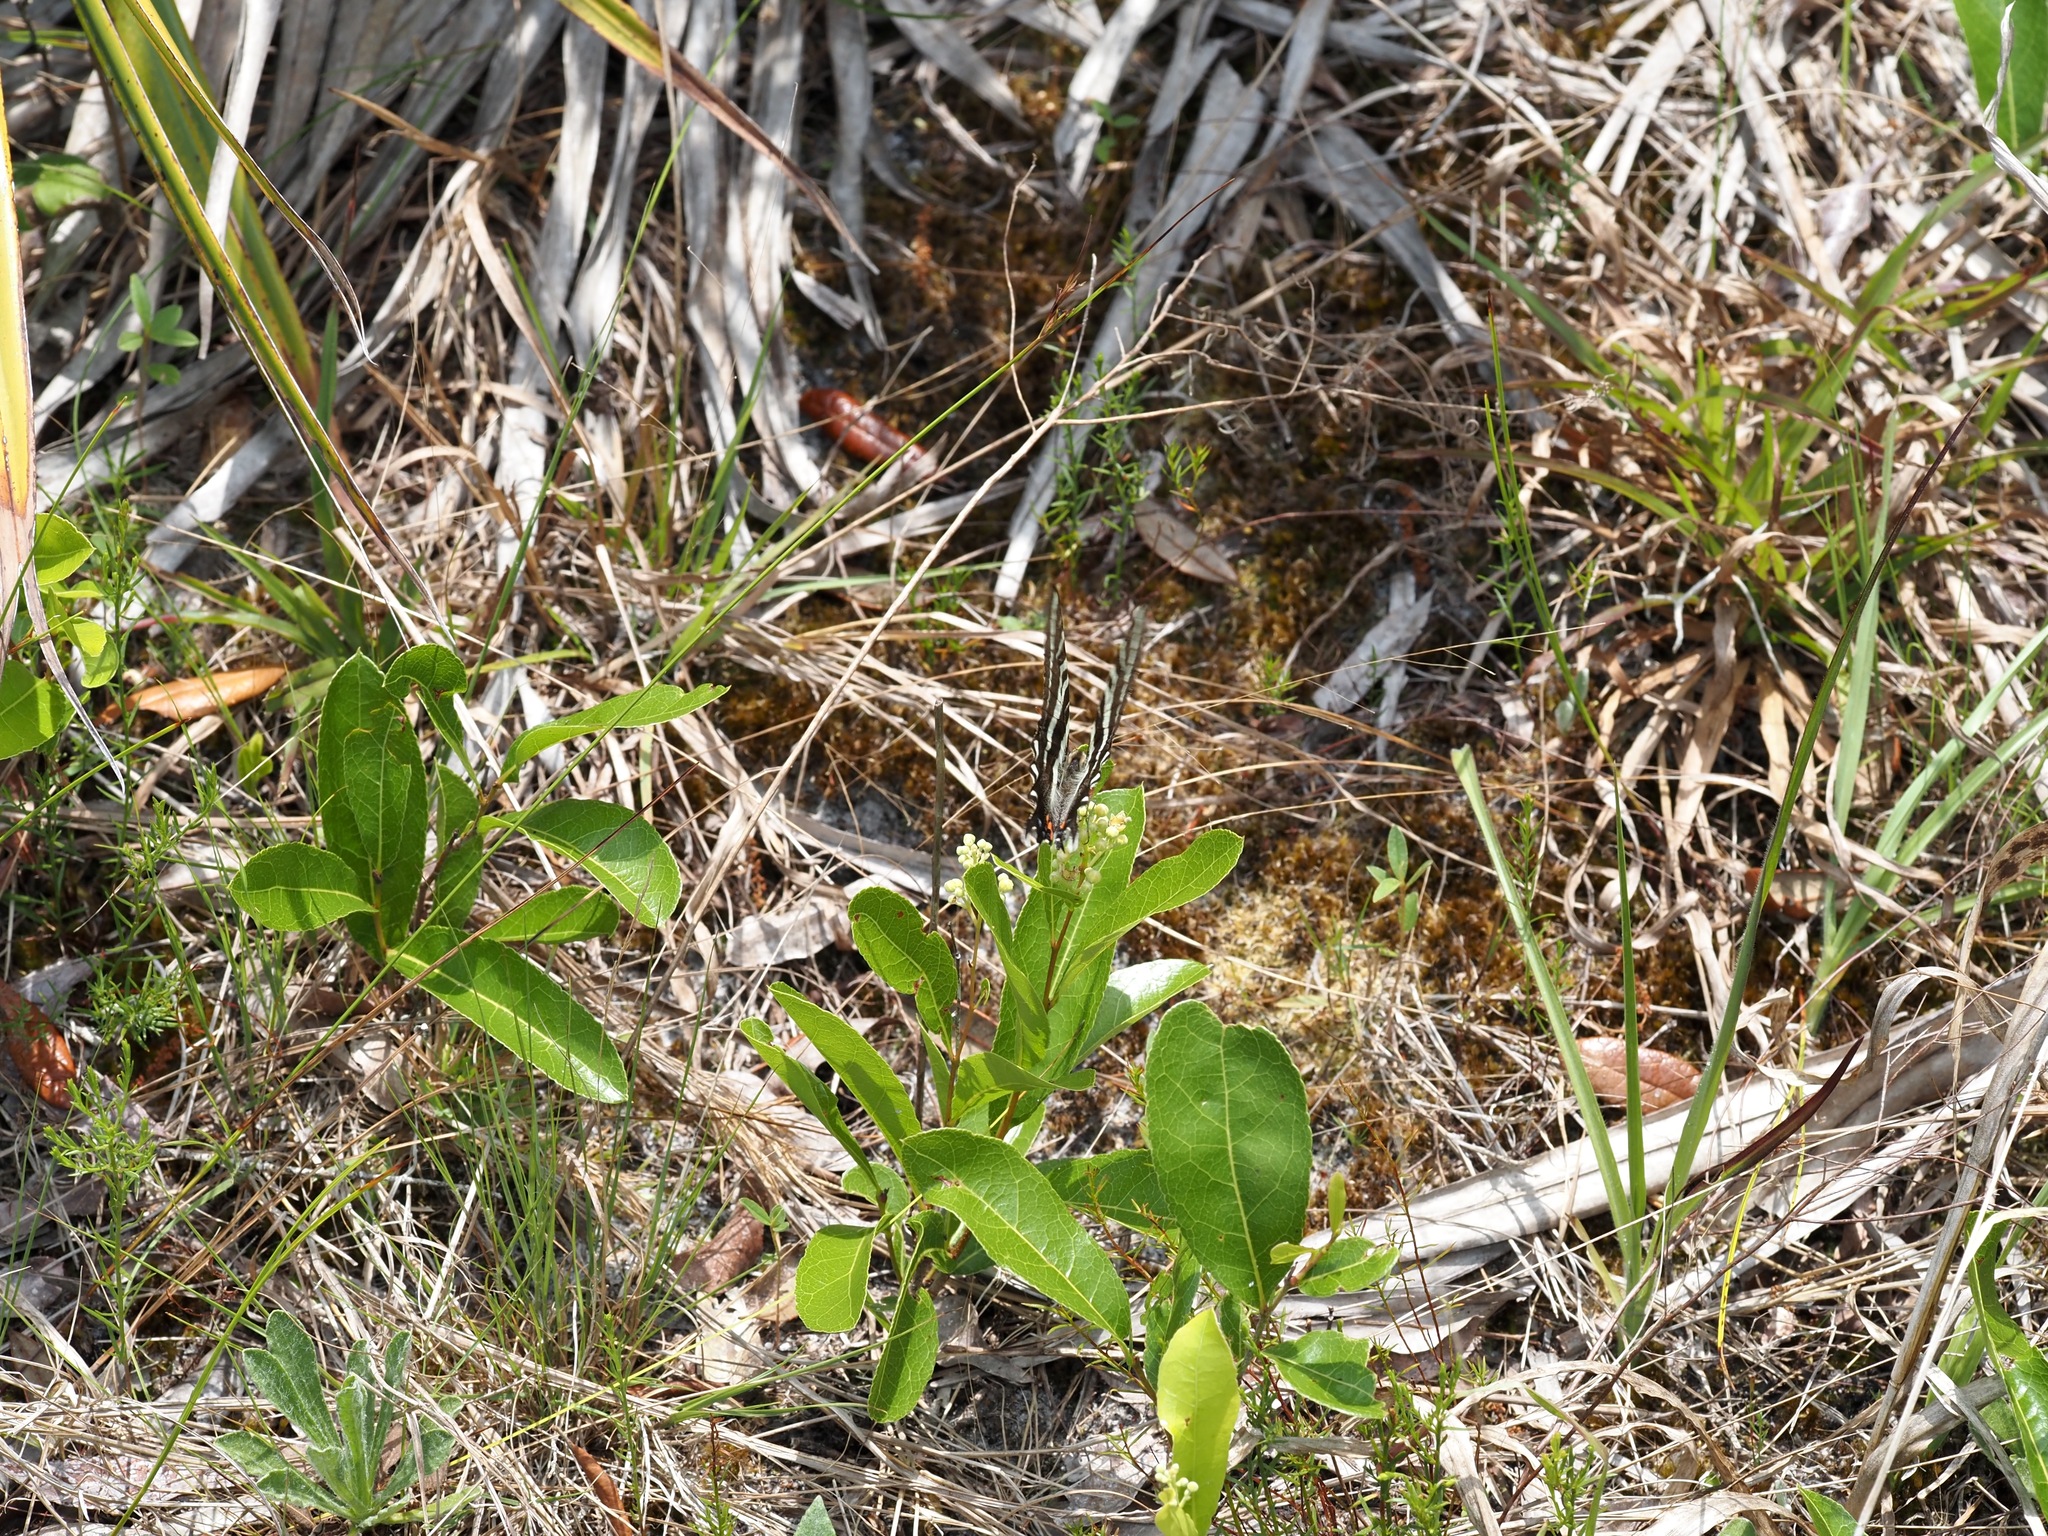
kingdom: Plantae
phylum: Tracheophyta
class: Magnoliopsida
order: Malpighiales
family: Chrysobalanaceae
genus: Geobalanus
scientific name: Geobalanus oblongifolius
